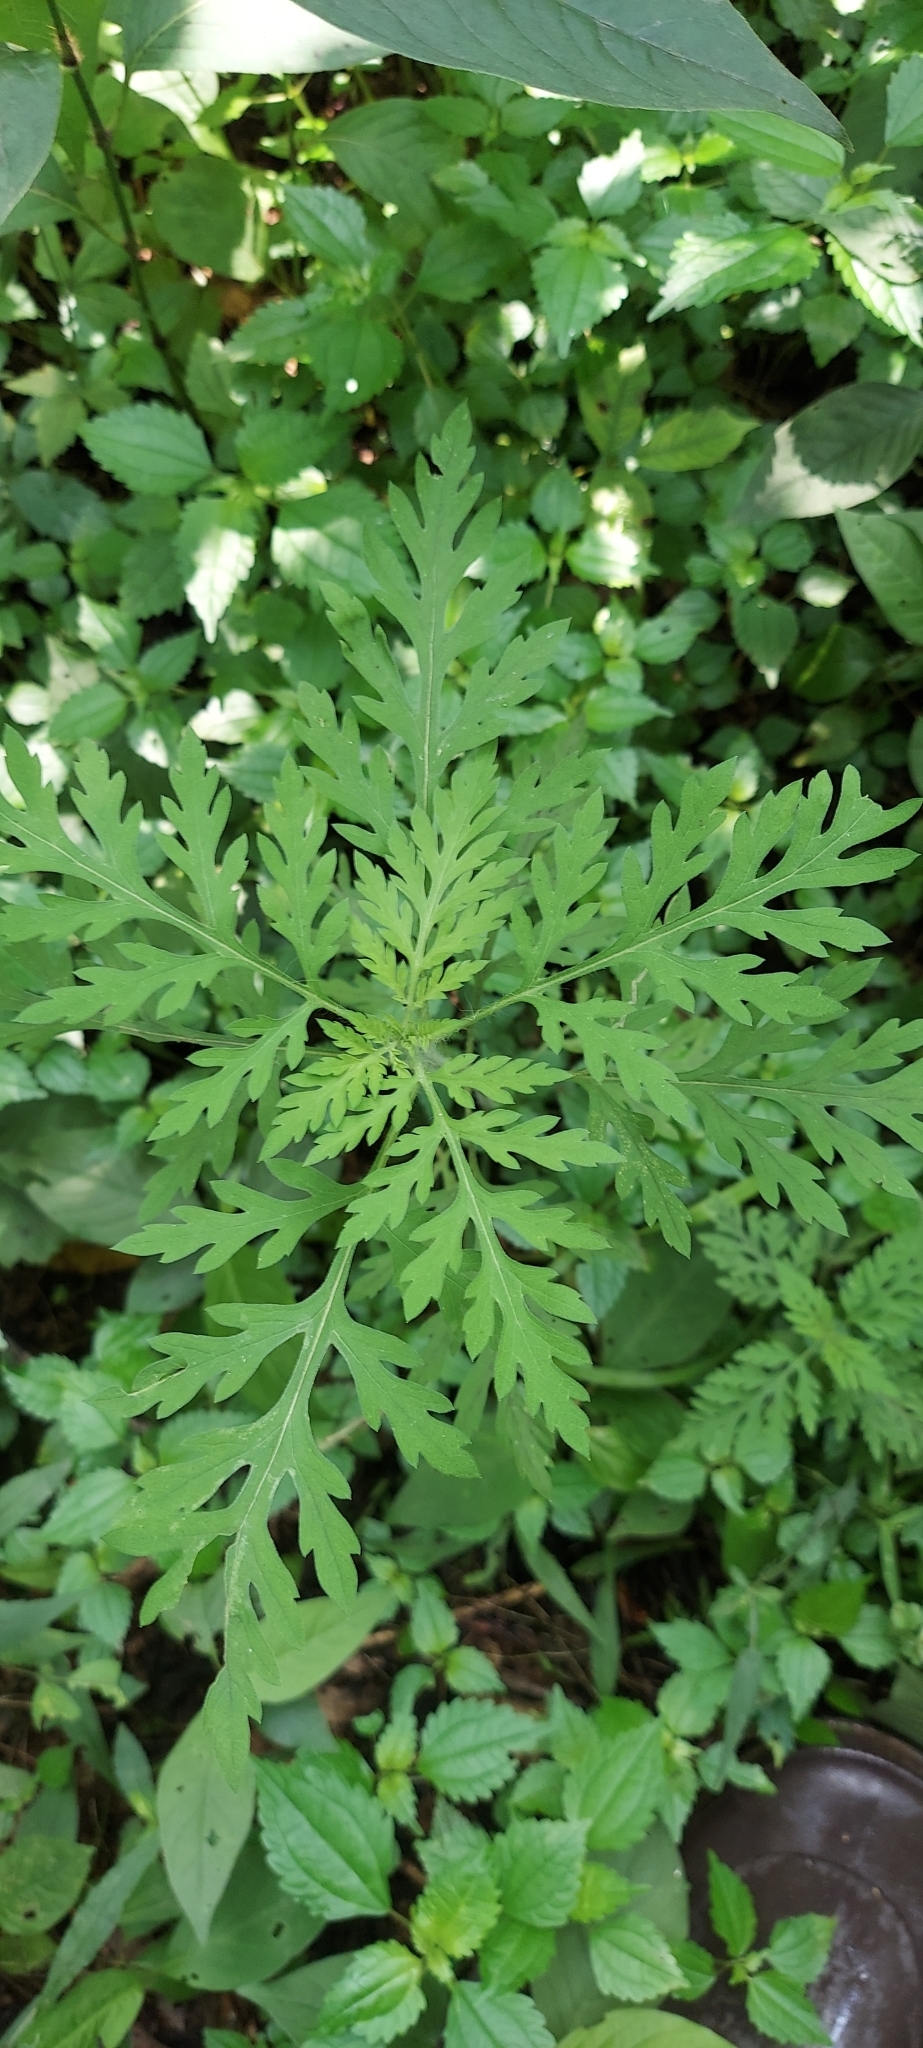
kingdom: Plantae
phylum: Tracheophyta
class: Magnoliopsida
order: Asterales
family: Asteraceae
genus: Ambrosia
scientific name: Ambrosia artemisiifolia
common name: Annual ragweed
